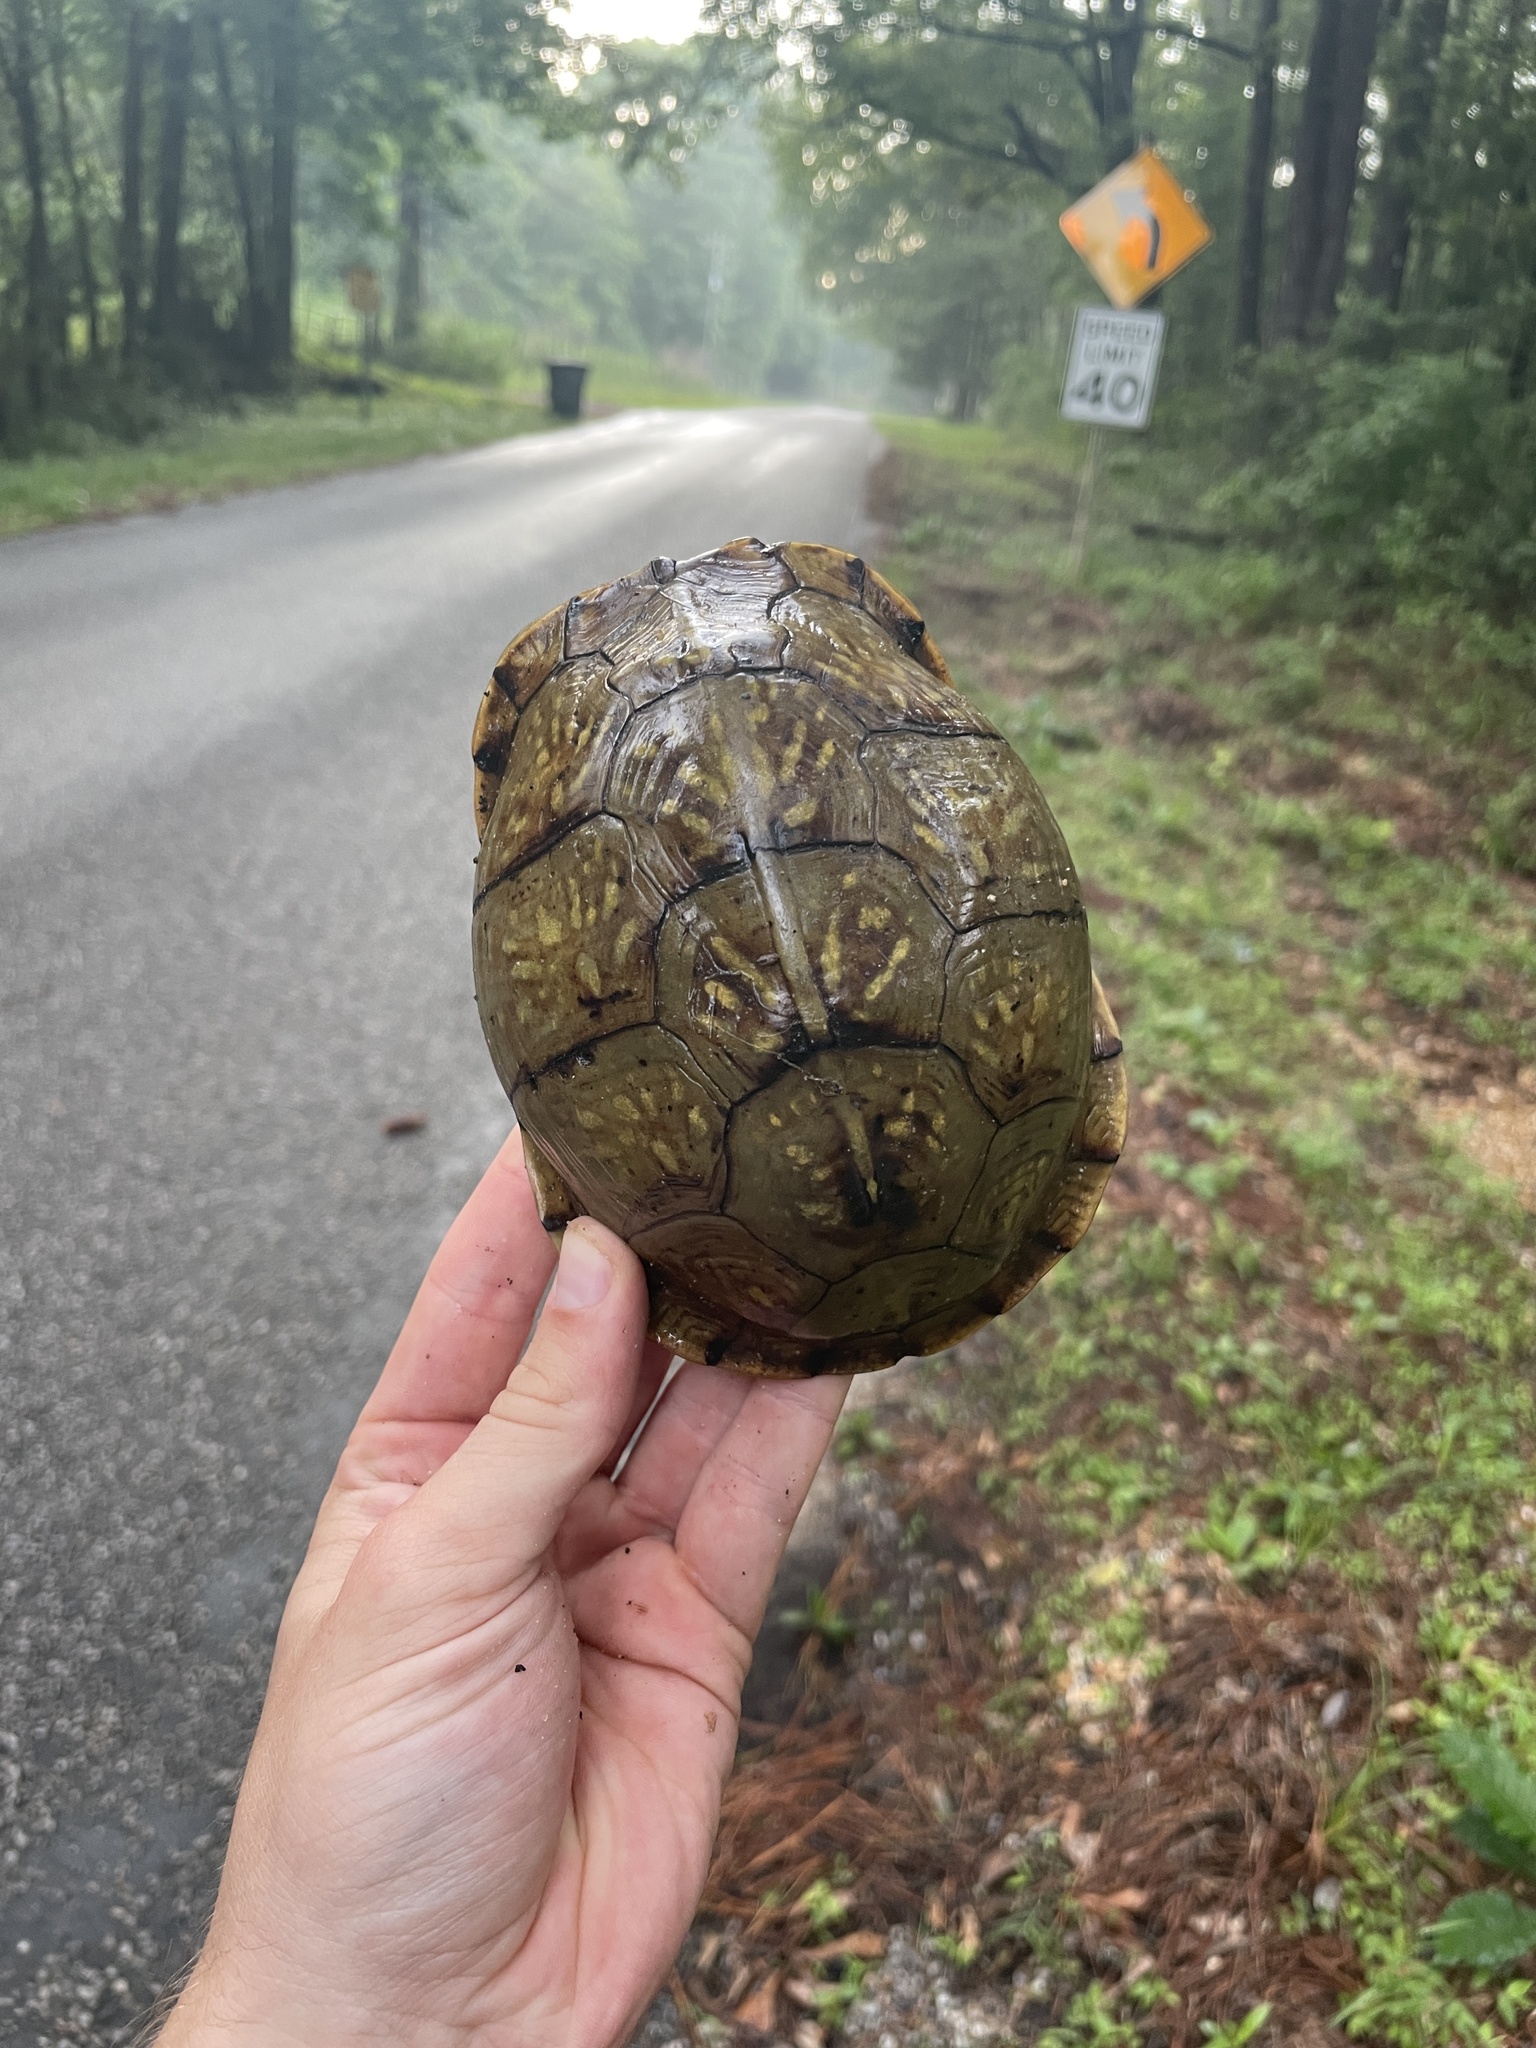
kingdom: Animalia
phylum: Chordata
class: Testudines
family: Emydidae
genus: Terrapene
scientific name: Terrapene carolina
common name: Common box turtle
